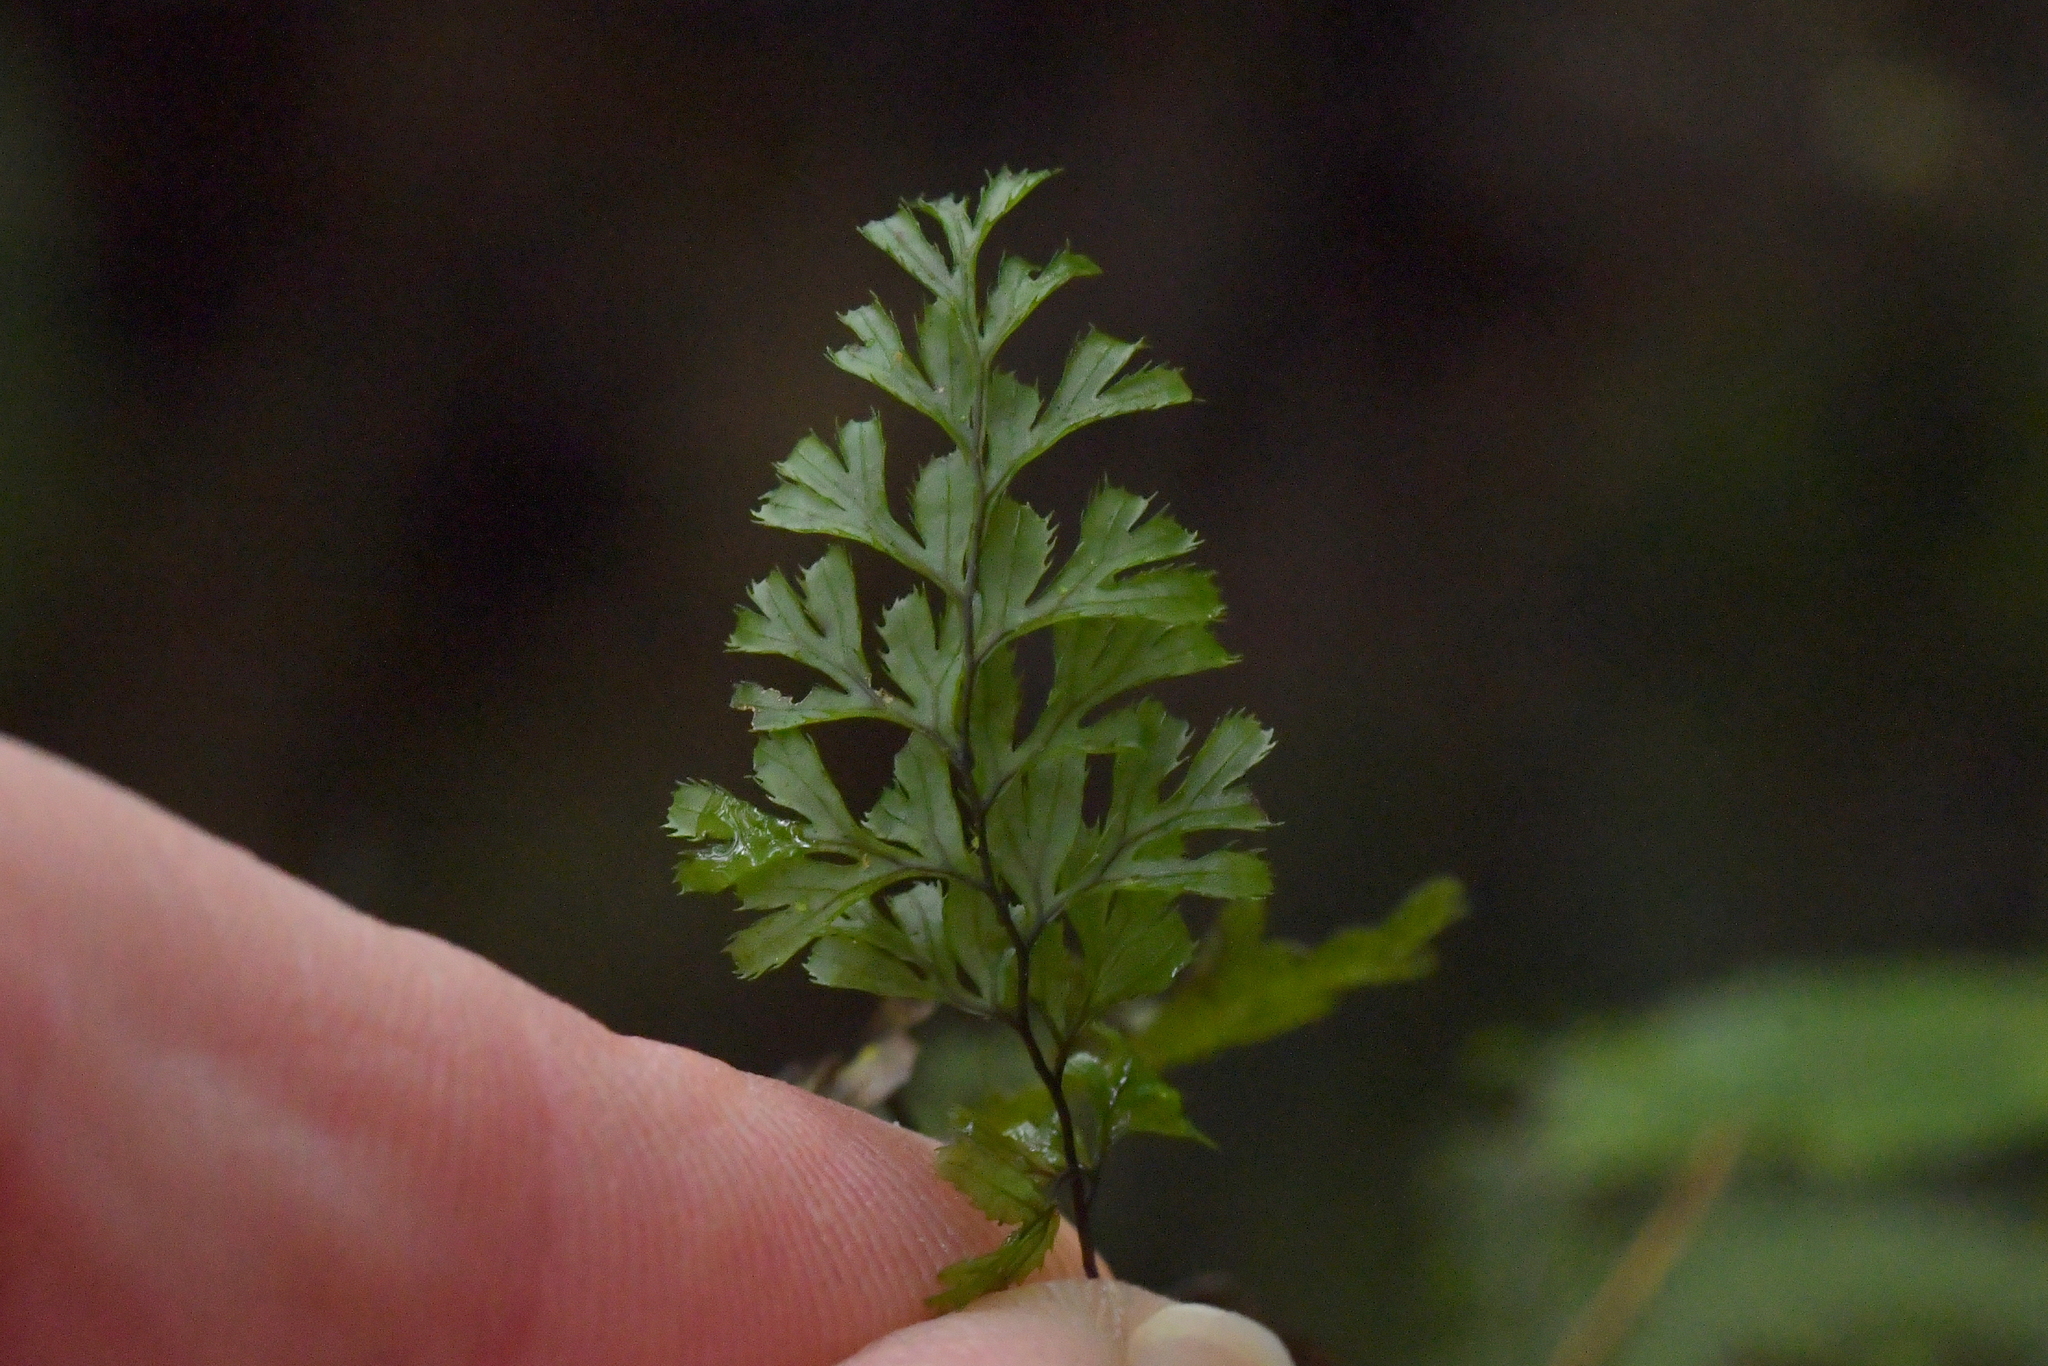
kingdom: Plantae
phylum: Tracheophyta
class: Polypodiopsida
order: Hymenophyllales
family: Hymenophyllaceae
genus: Hymenophyllum
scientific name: Hymenophyllum revolutum
